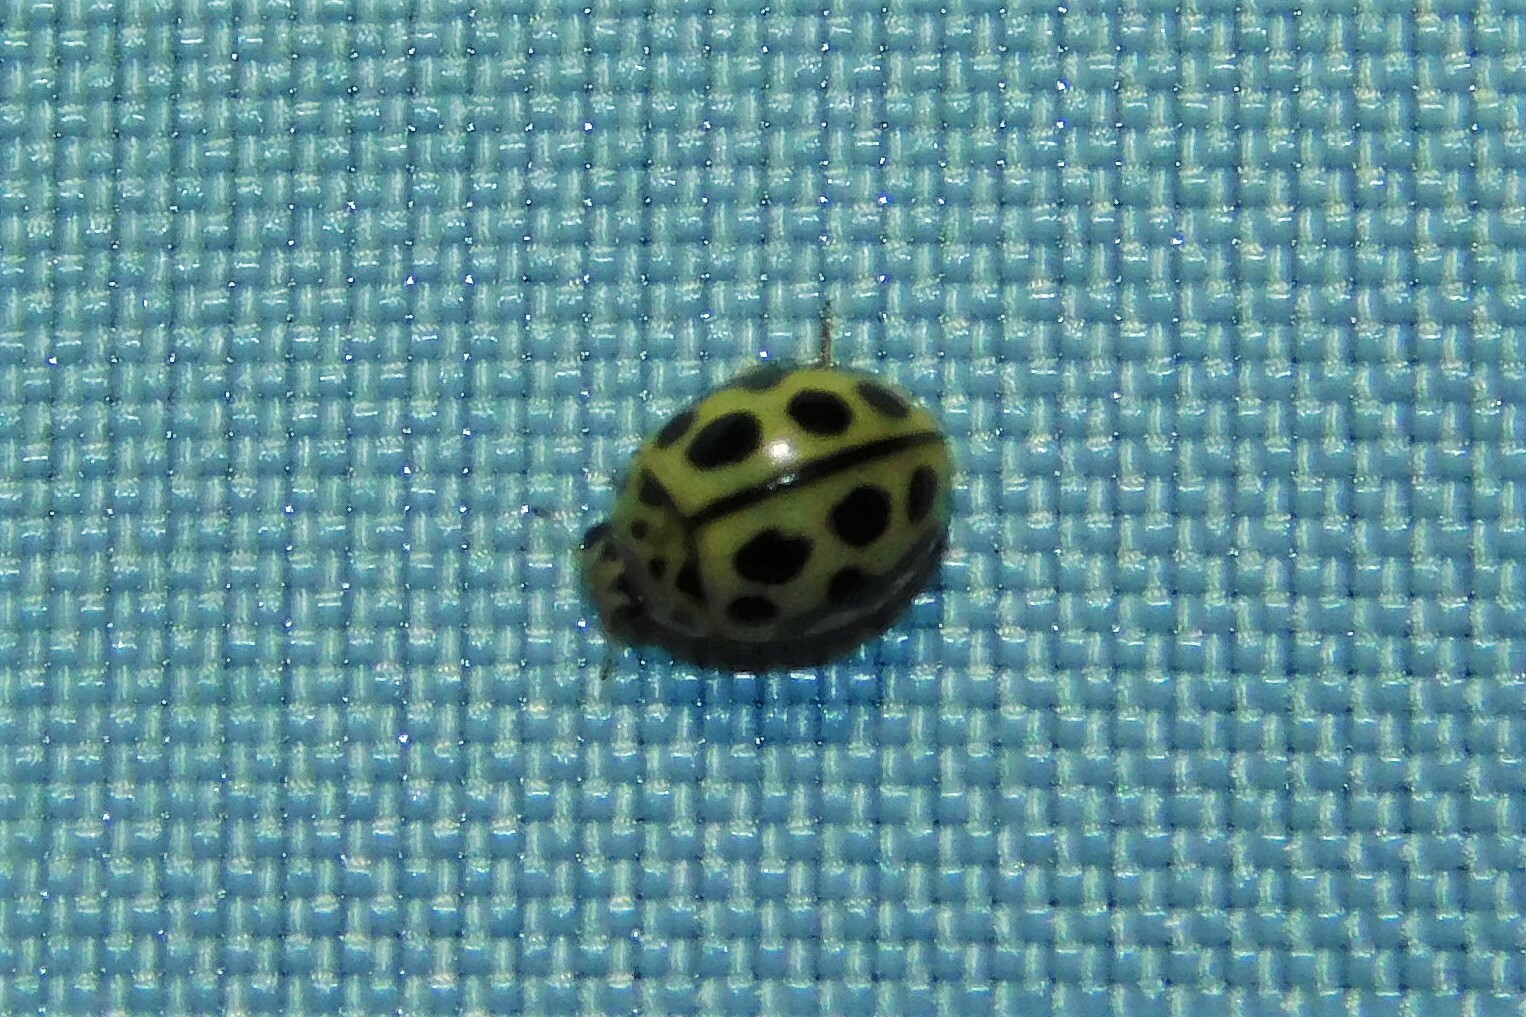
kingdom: Animalia
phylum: Arthropoda
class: Insecta
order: Coleoptera
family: Coccinellidae
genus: Tytthaspis
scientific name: Tytthaspis sedecimpunctata
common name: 16-spot ladybird
